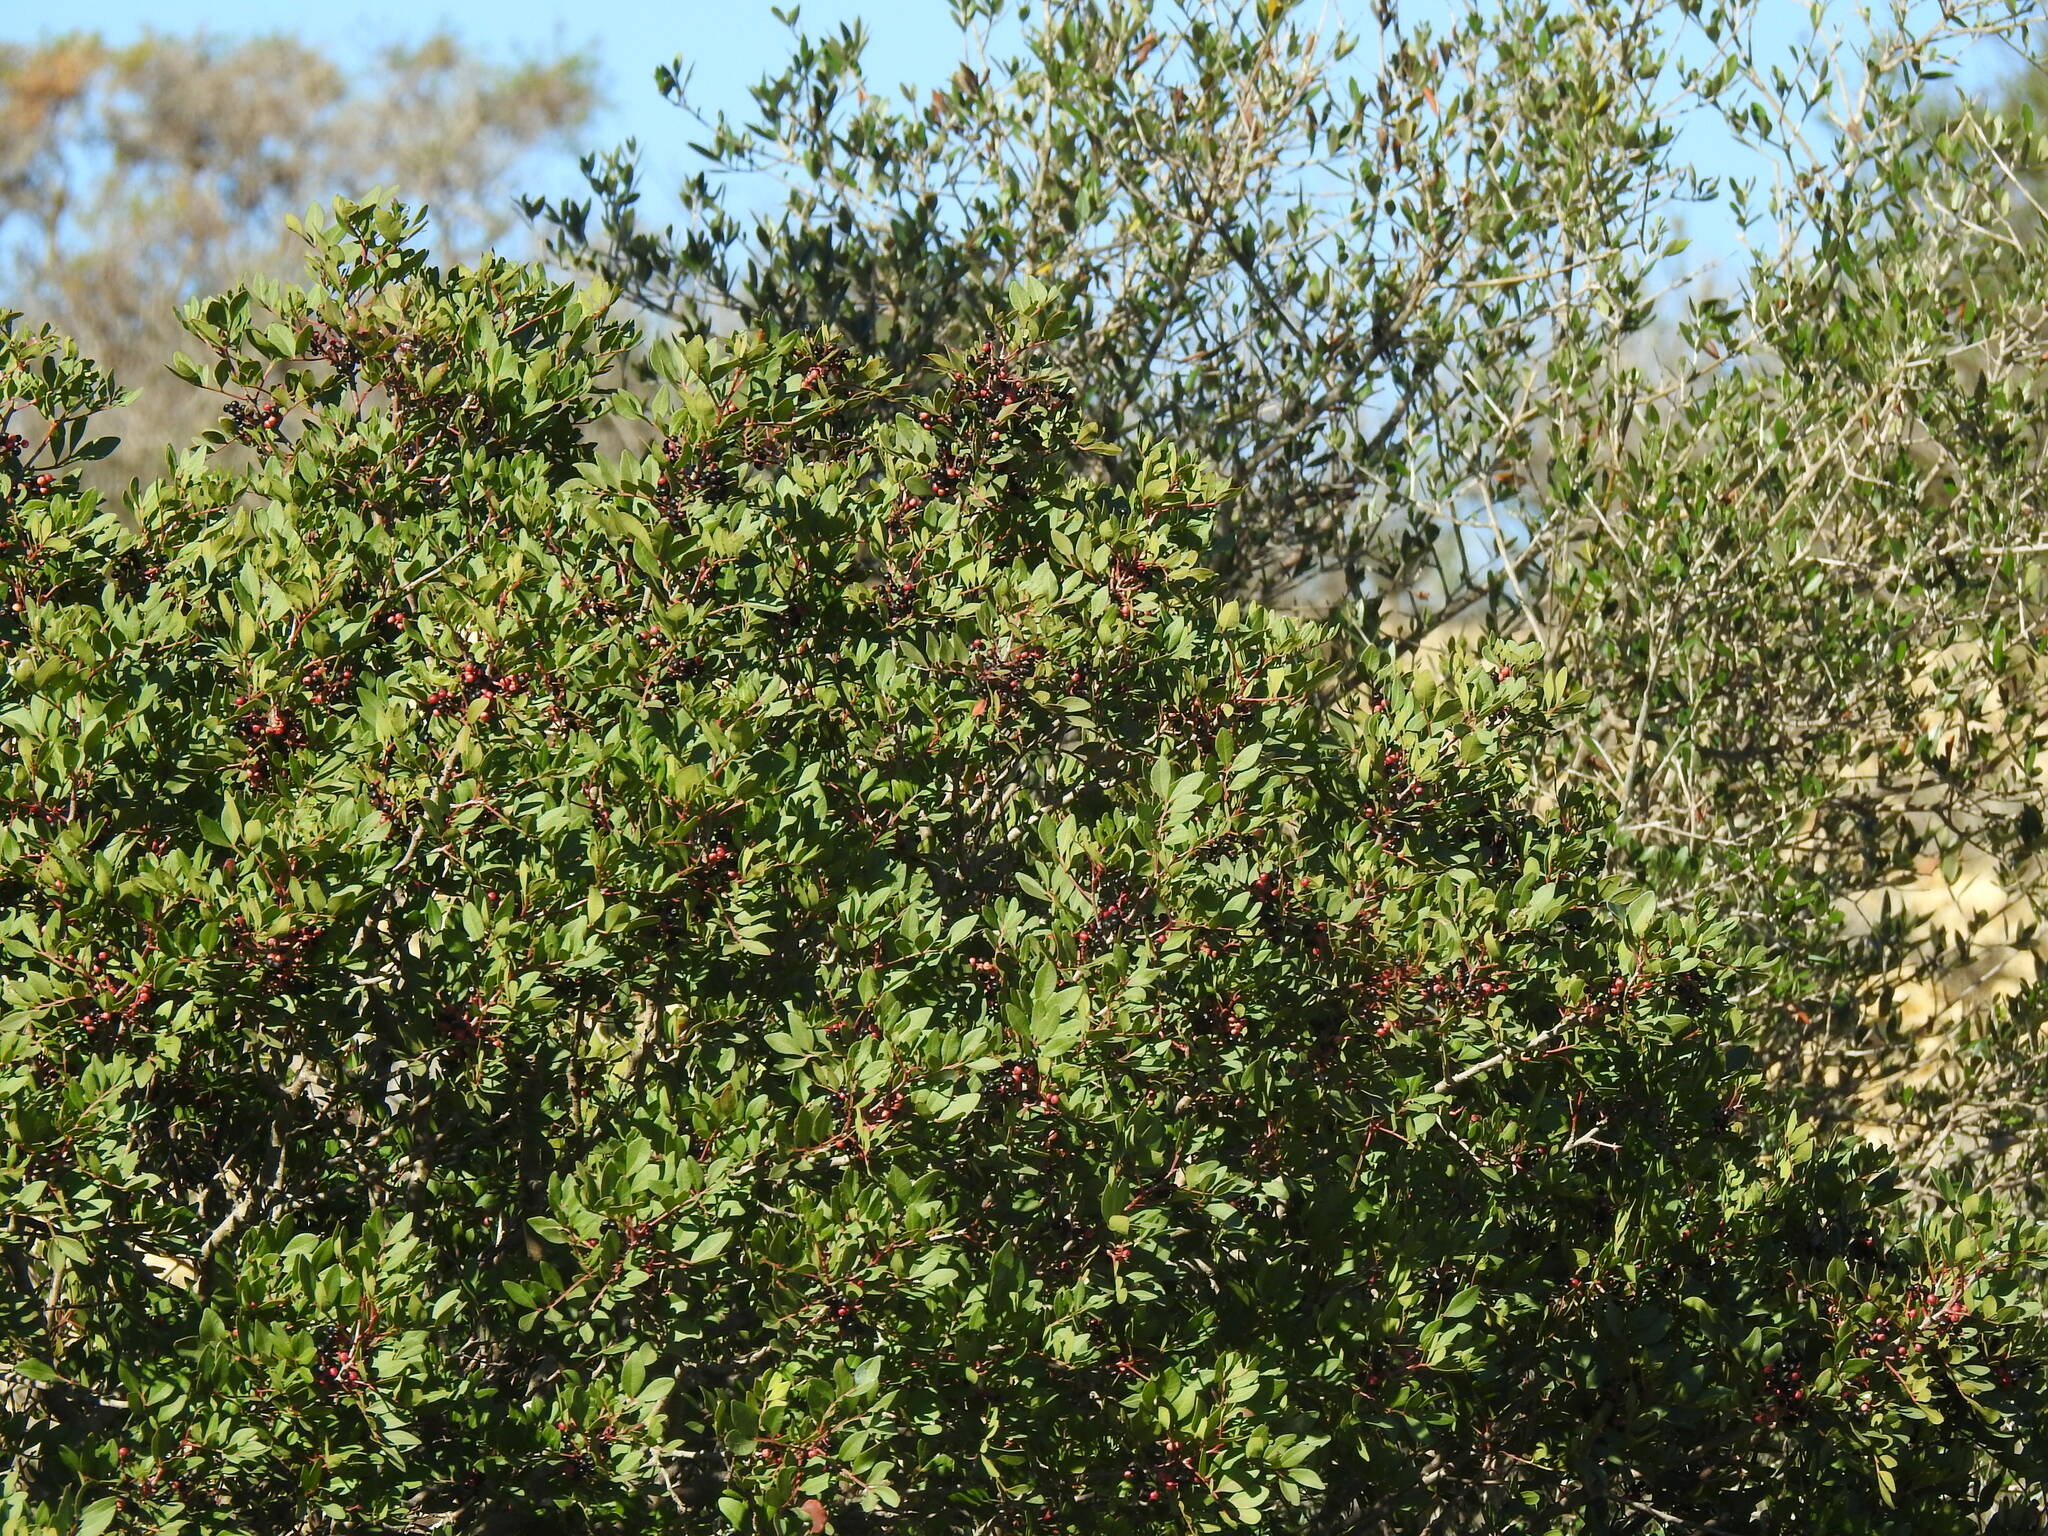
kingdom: Plantae
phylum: Tracheophyta
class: Magnoliopsida
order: Sapindales
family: Anacardiaceae
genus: Pistacia
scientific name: Pistacia lentiscus
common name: Lentisk
